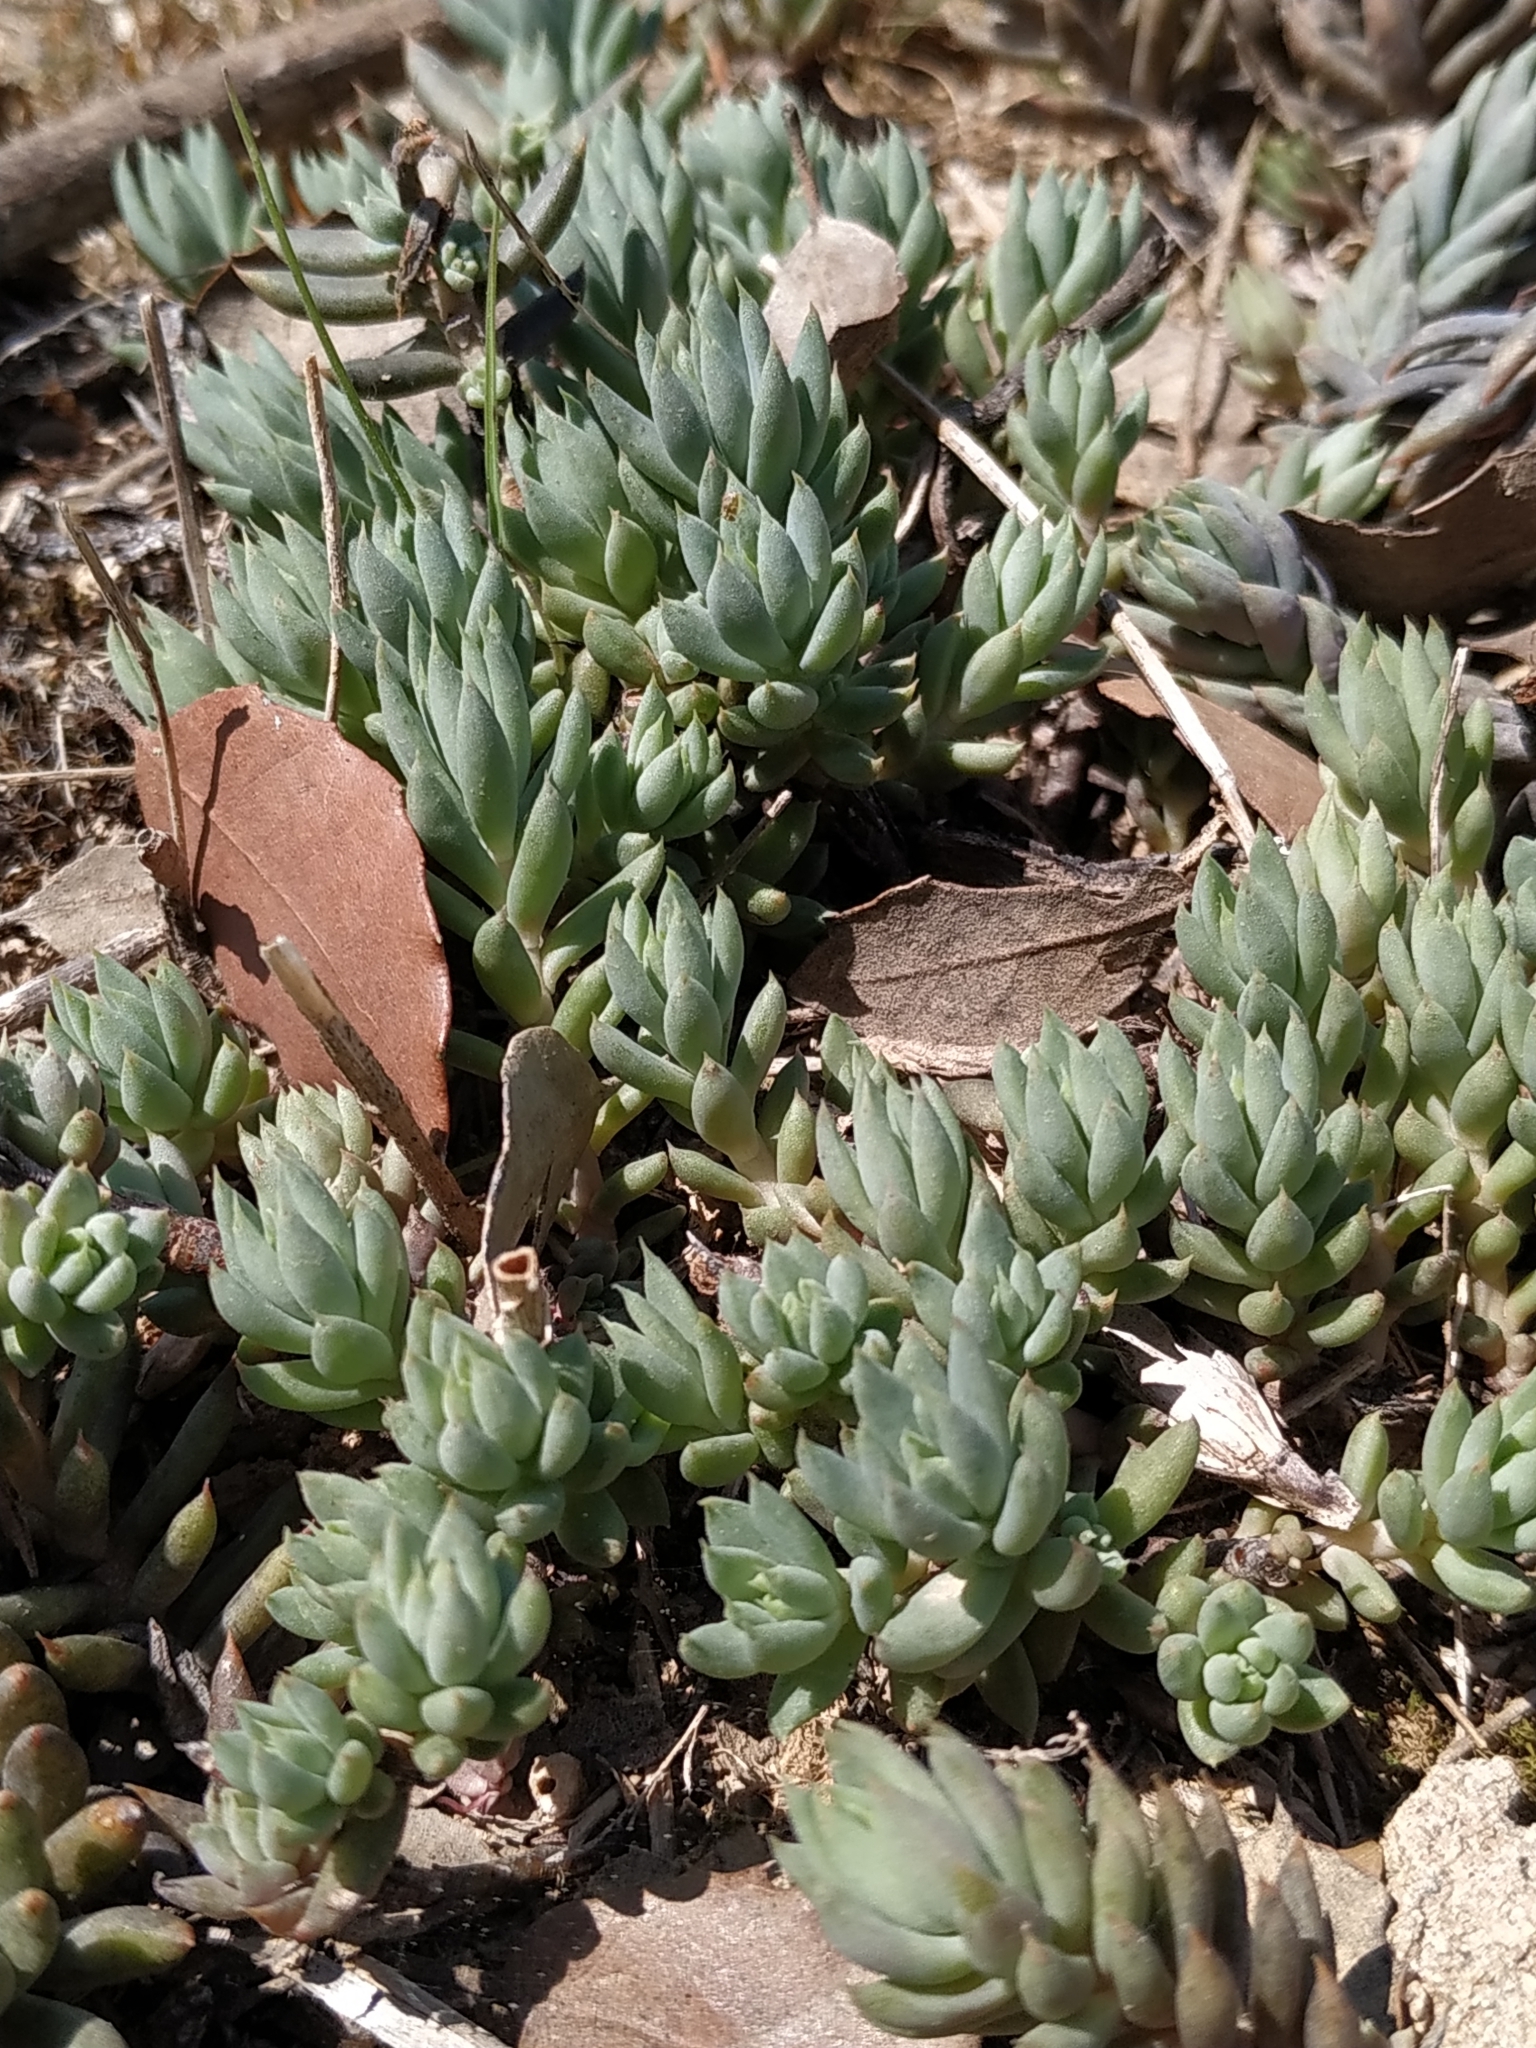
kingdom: Plantae
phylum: Tracheophyta
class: Magnoliopsida
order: Saxifragales
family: Crassulaceae
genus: Petrosedum
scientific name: Petrosedum sediforme
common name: Pale stonecrop
